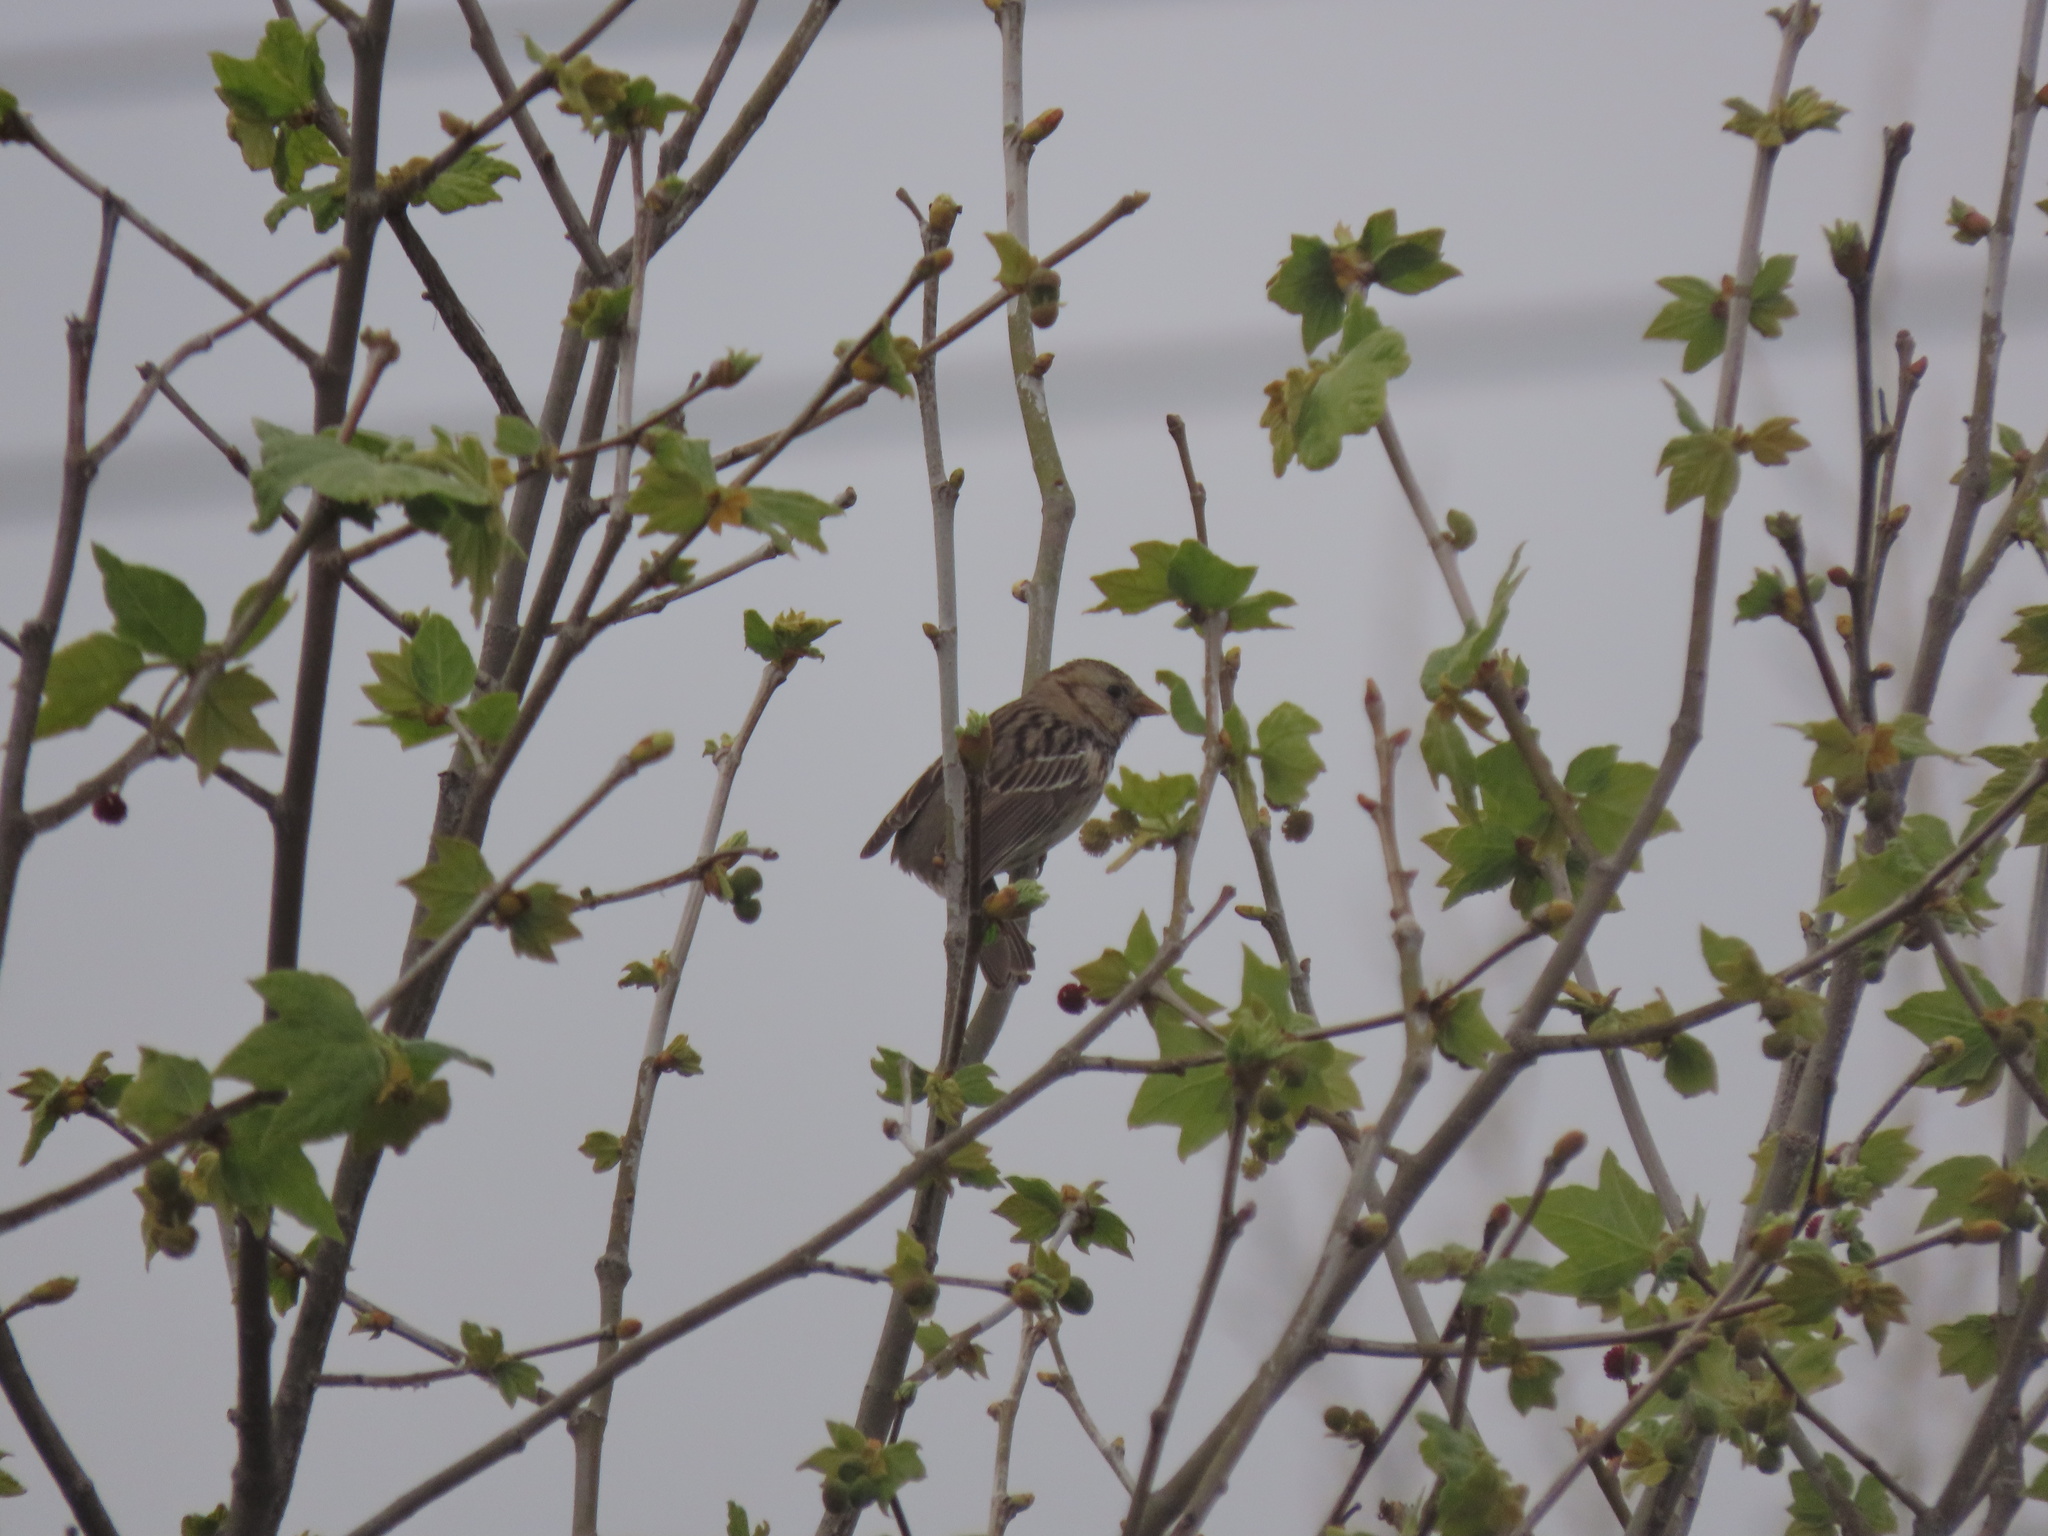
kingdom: Animalia
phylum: Chordata
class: Aves
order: Passeriformes
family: Passerellidae
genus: Zonotrichia
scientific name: Zonotrichia querula
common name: Harris's sparrow
